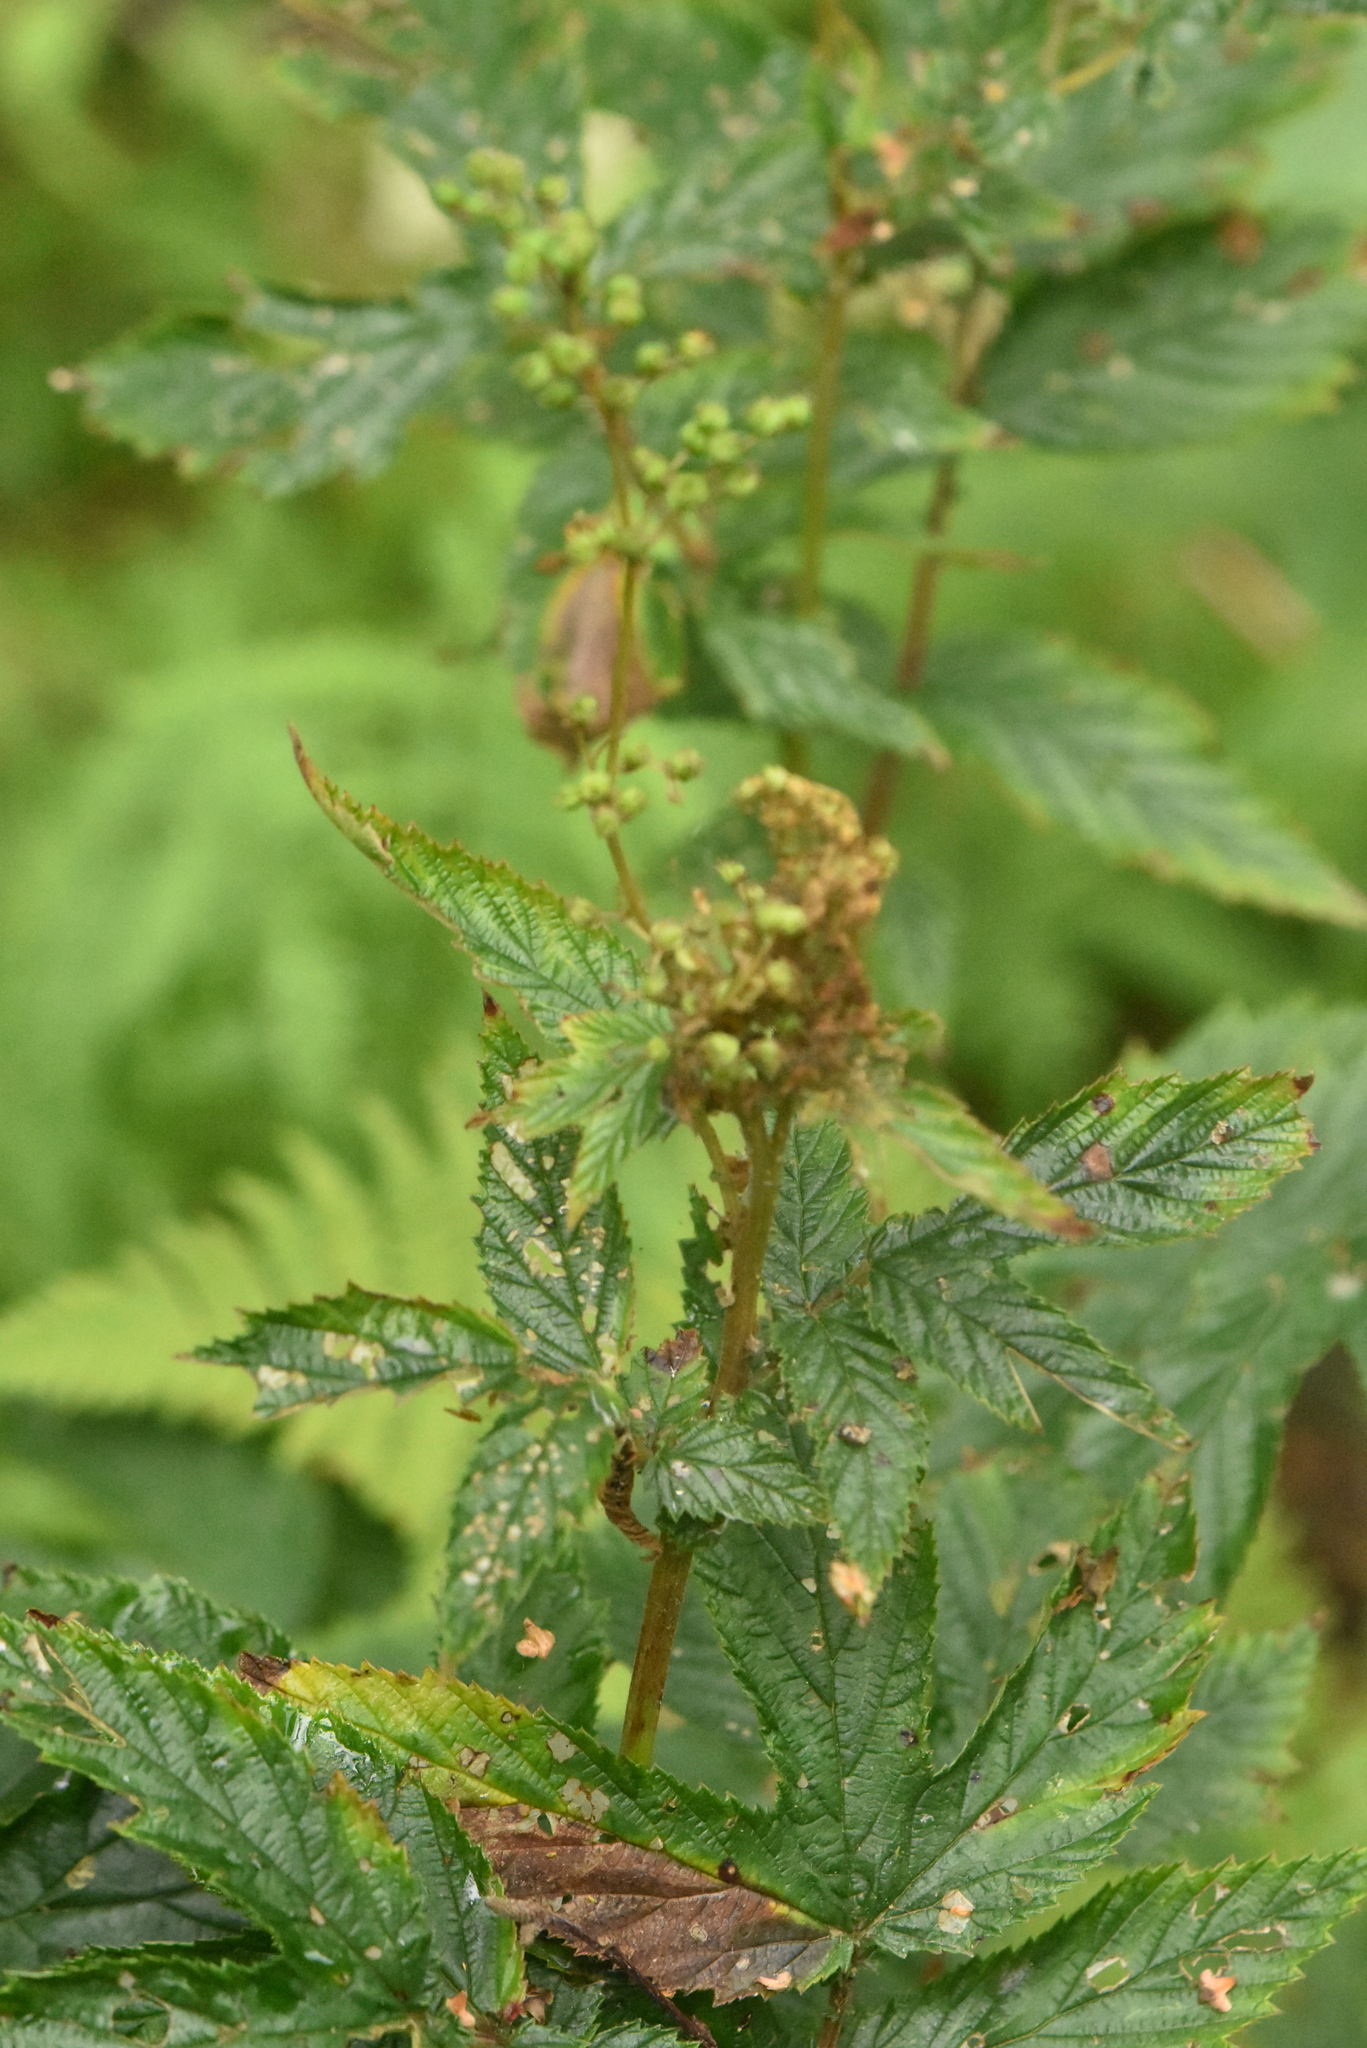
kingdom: Plantae
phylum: Tracheophyta
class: Magnoliopsida
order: Rosales
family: Rosaceae
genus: Filipendula
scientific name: Filipendula ulmaria
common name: Meadowsweet
